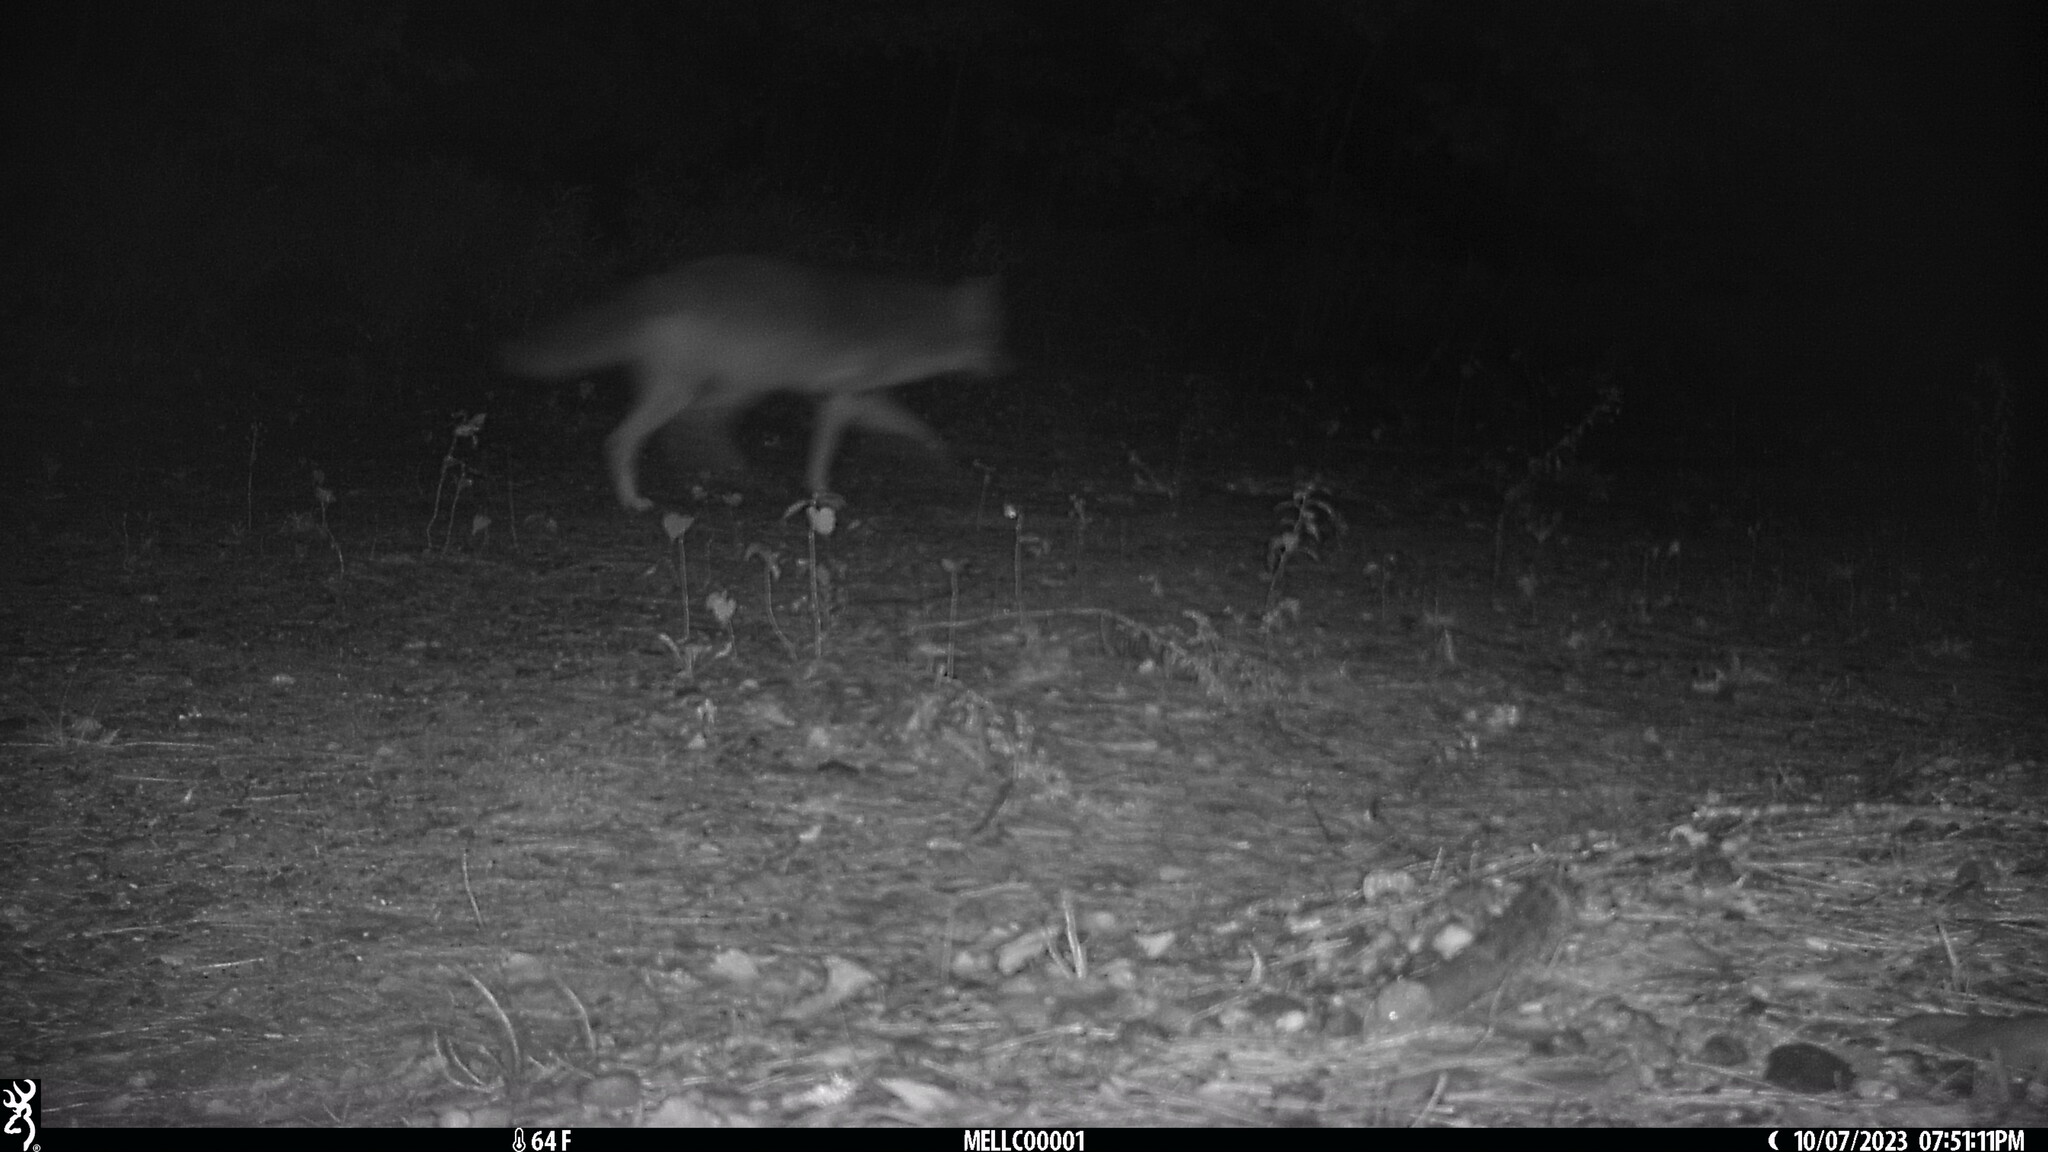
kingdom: Animalia
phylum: Chordata
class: Mammalia
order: Carnivora
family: Canidae
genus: Canis
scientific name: Canis latrans
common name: Coyote
